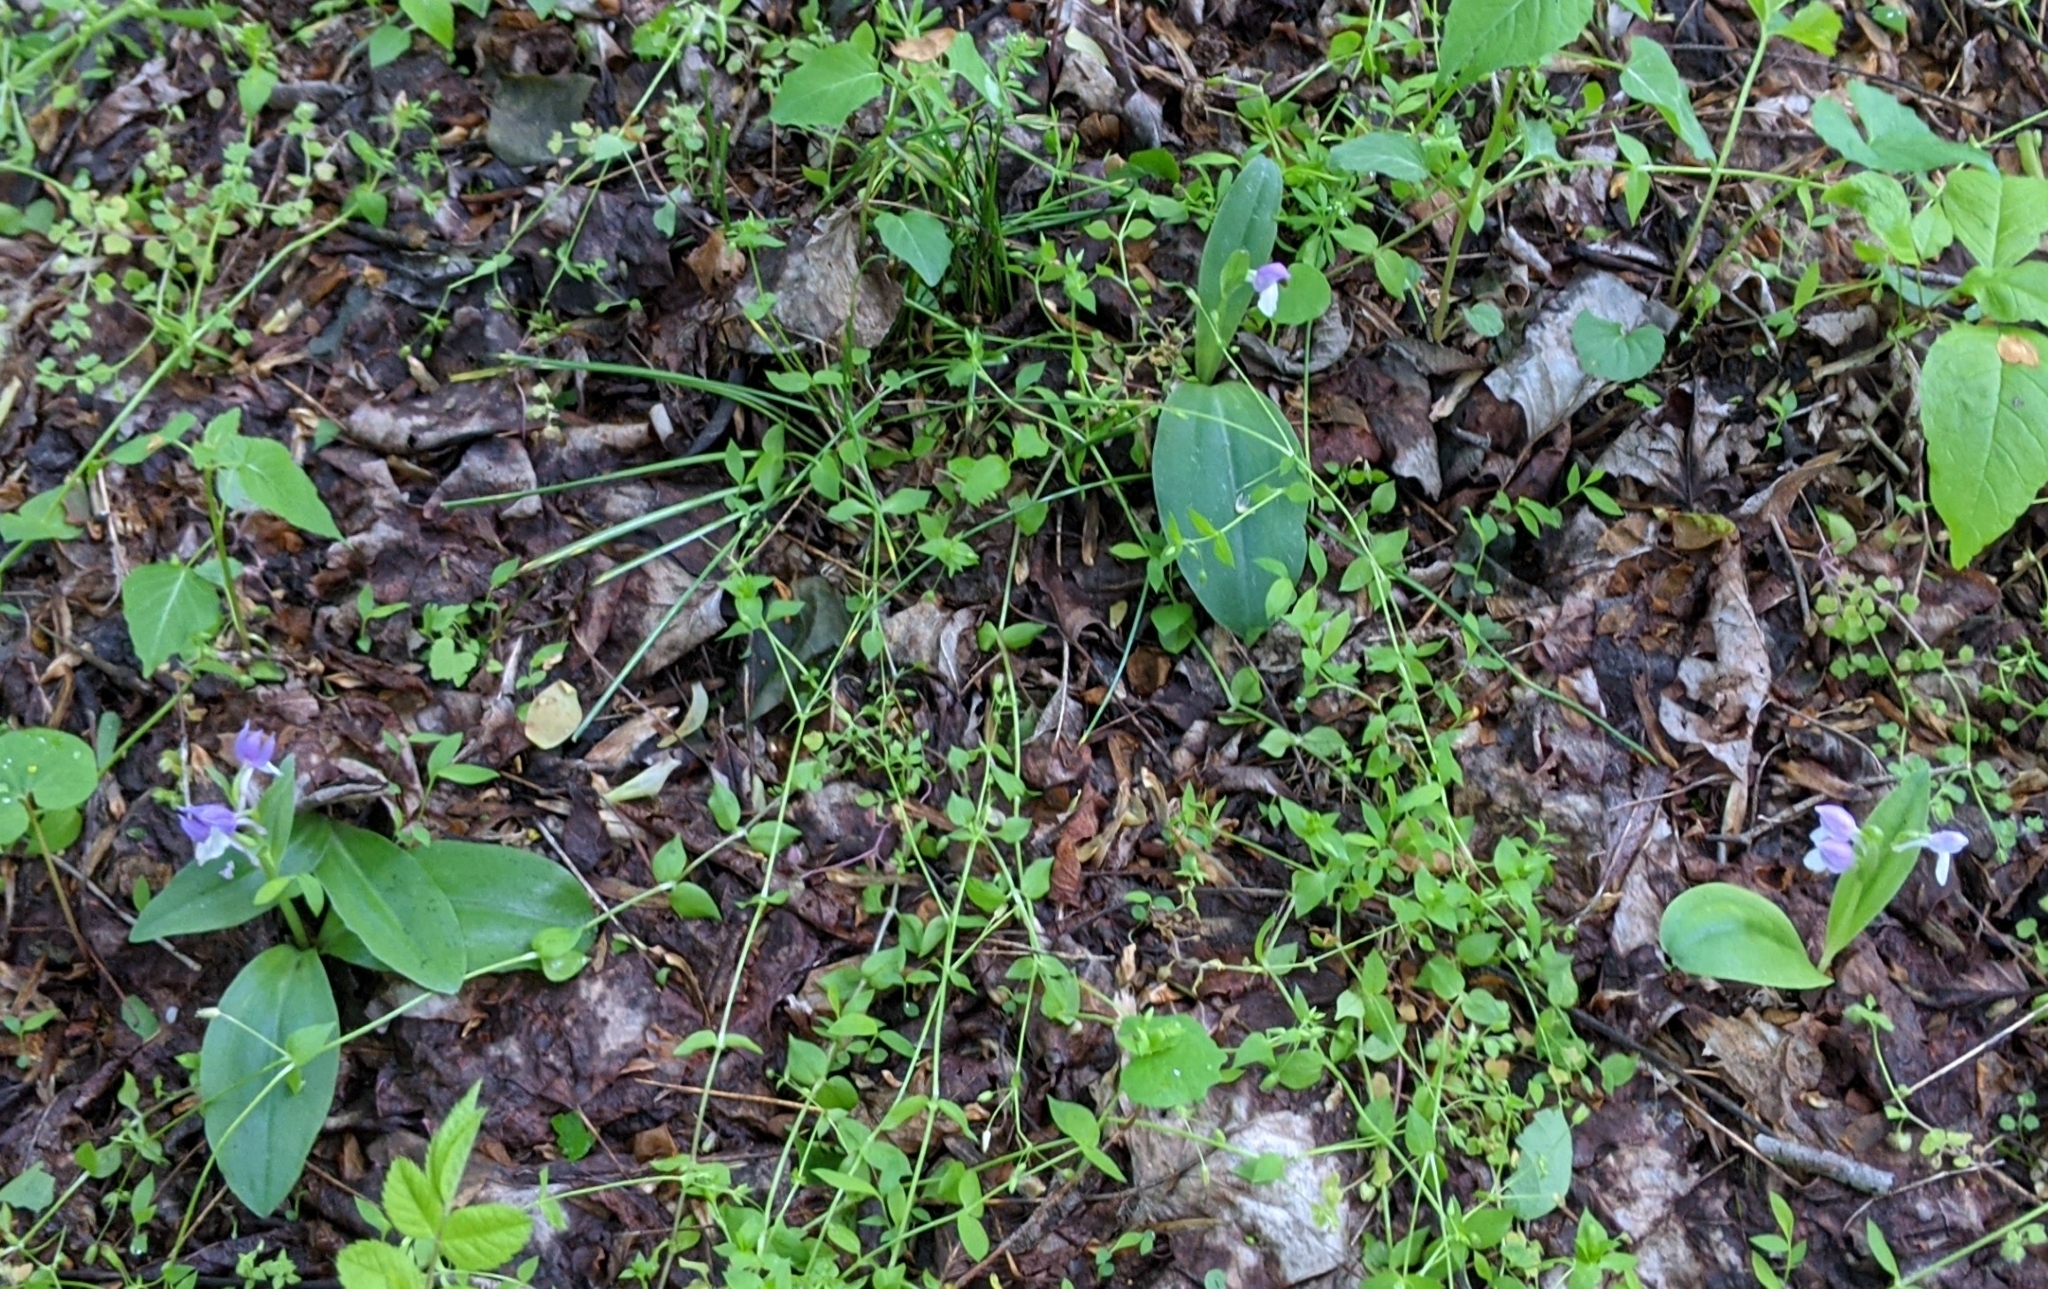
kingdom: Plantae
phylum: Tracheophyta
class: Liliopsida
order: Asparagales
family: Orchidaceae
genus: Galearis
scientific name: Galearis spectabilis
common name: Purple-hooded orchis
